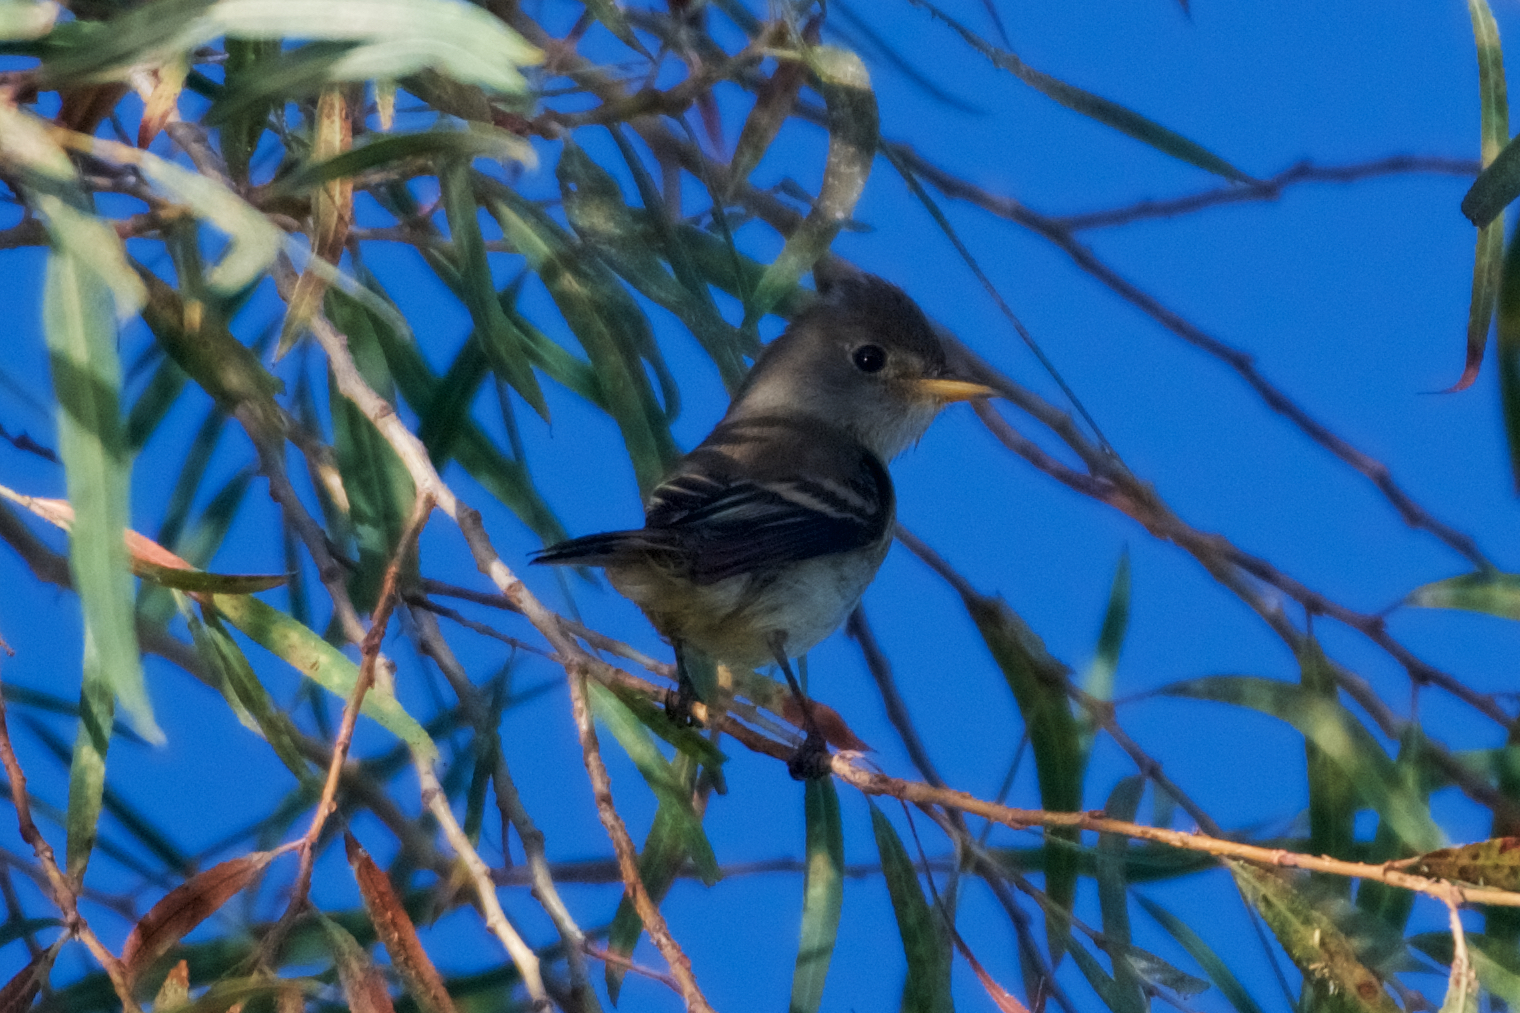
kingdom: Animalia
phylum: Chordata
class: Aves
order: Passeriformes
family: Tyrannidae
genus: Empidonax
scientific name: Empidonax traillii
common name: Willow flycatcher
